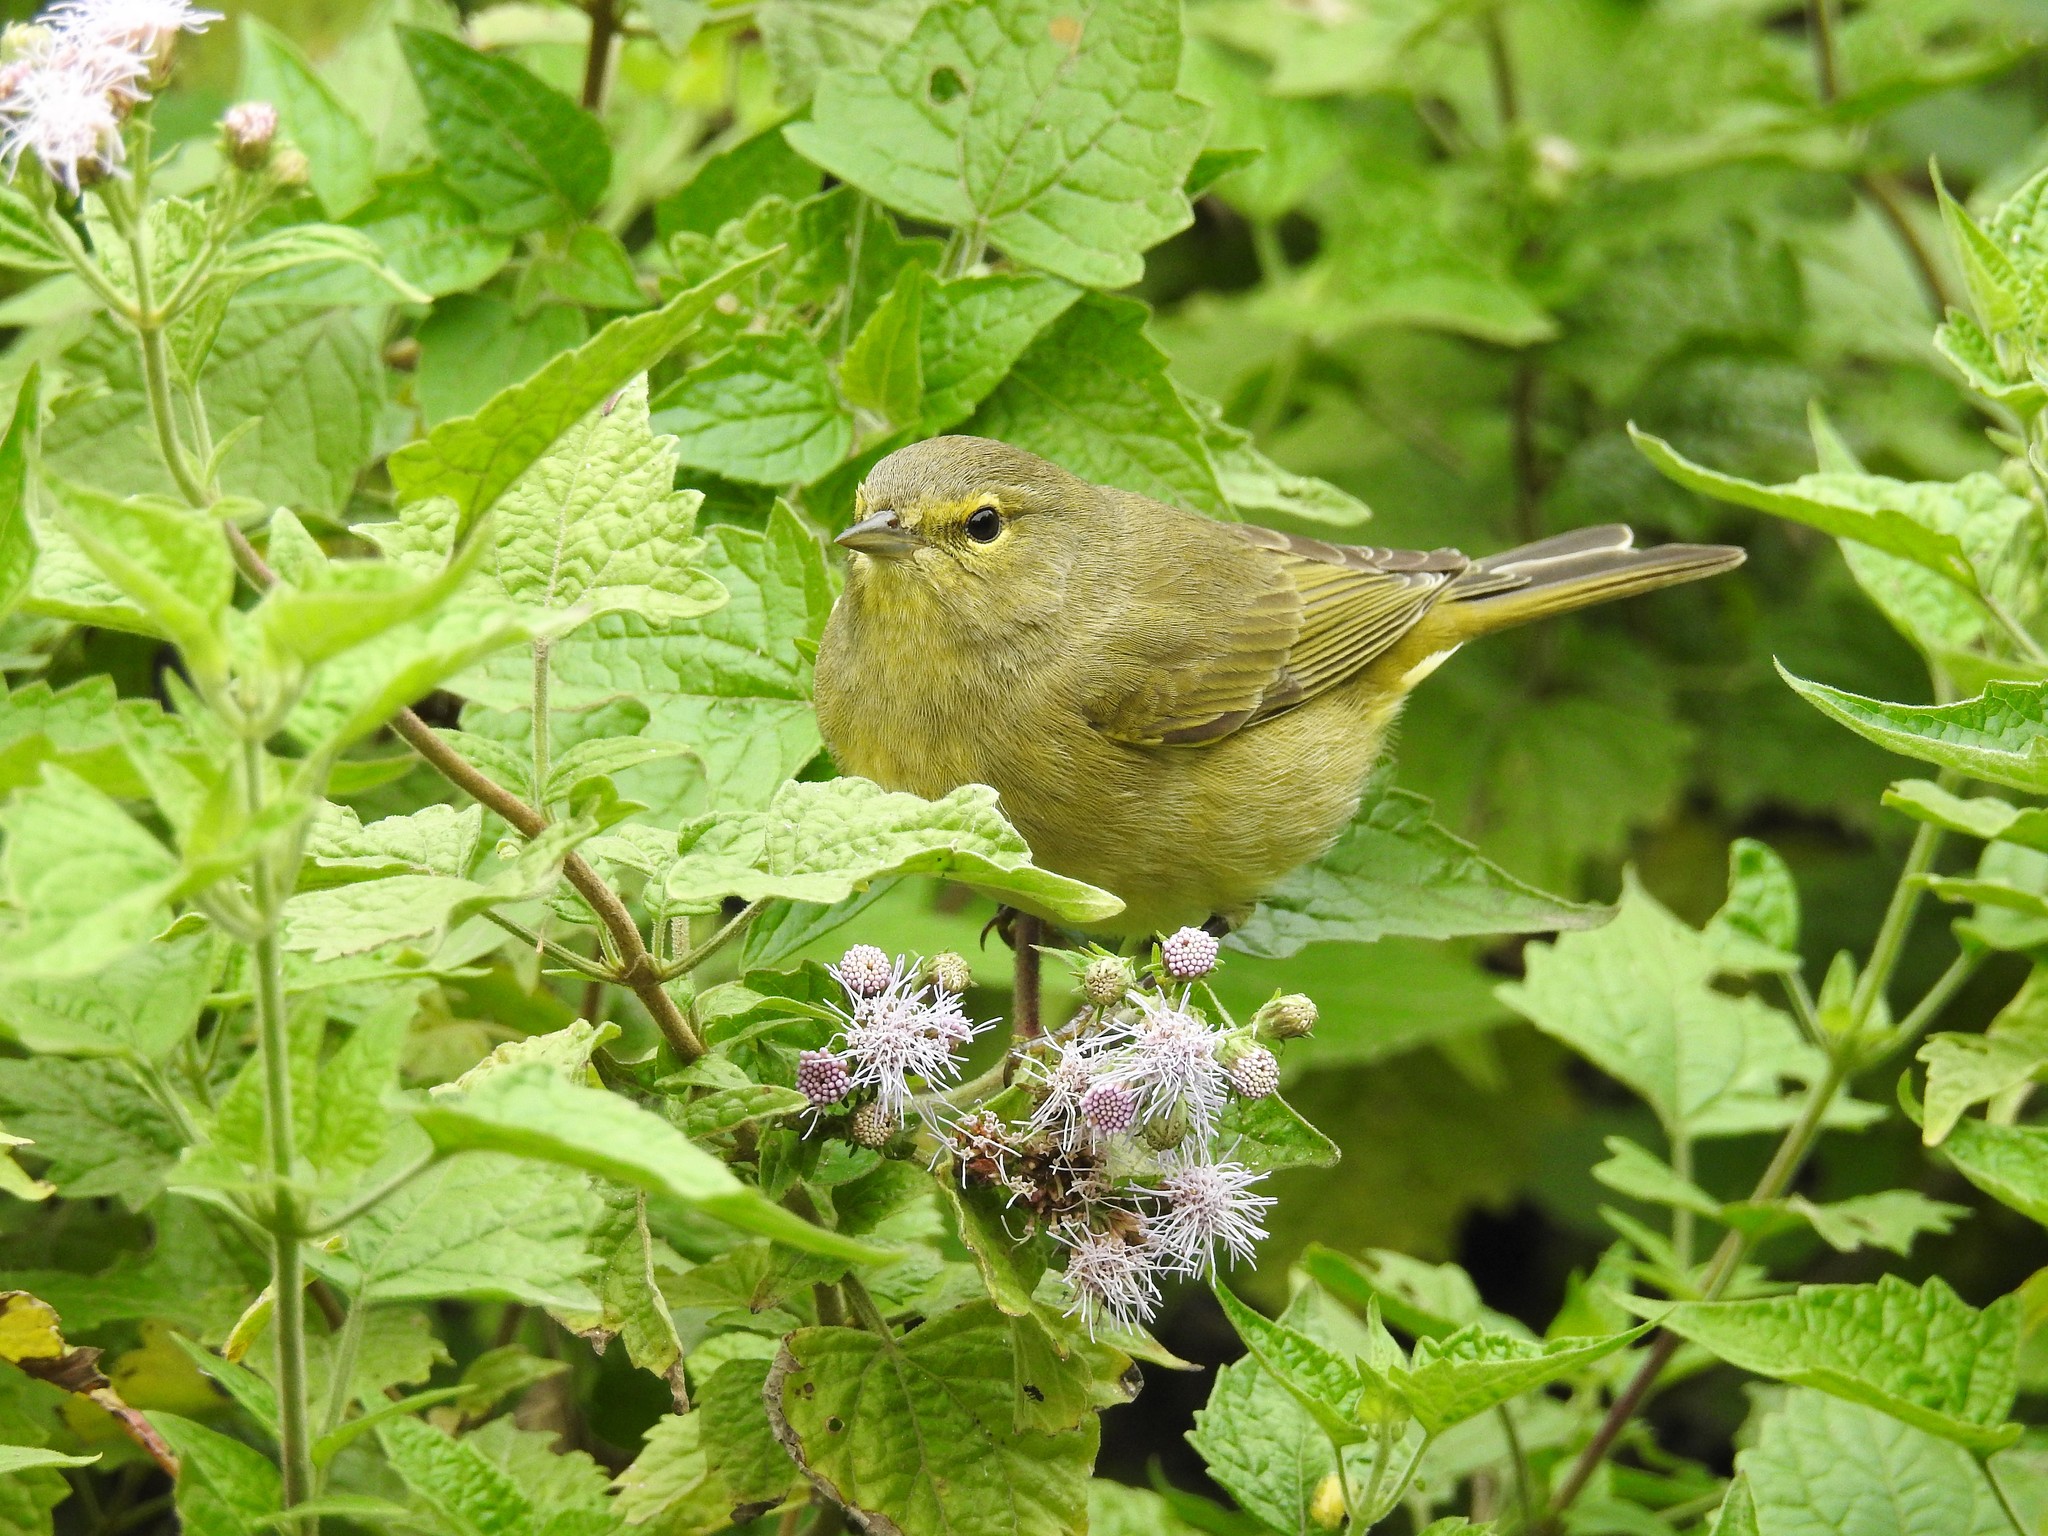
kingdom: Animalia
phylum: Chordata
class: Aves
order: Passeriformes
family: Parulidae
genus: Leiothlypis
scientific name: Leiothlypis celata
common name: Orange-crowned warbler
